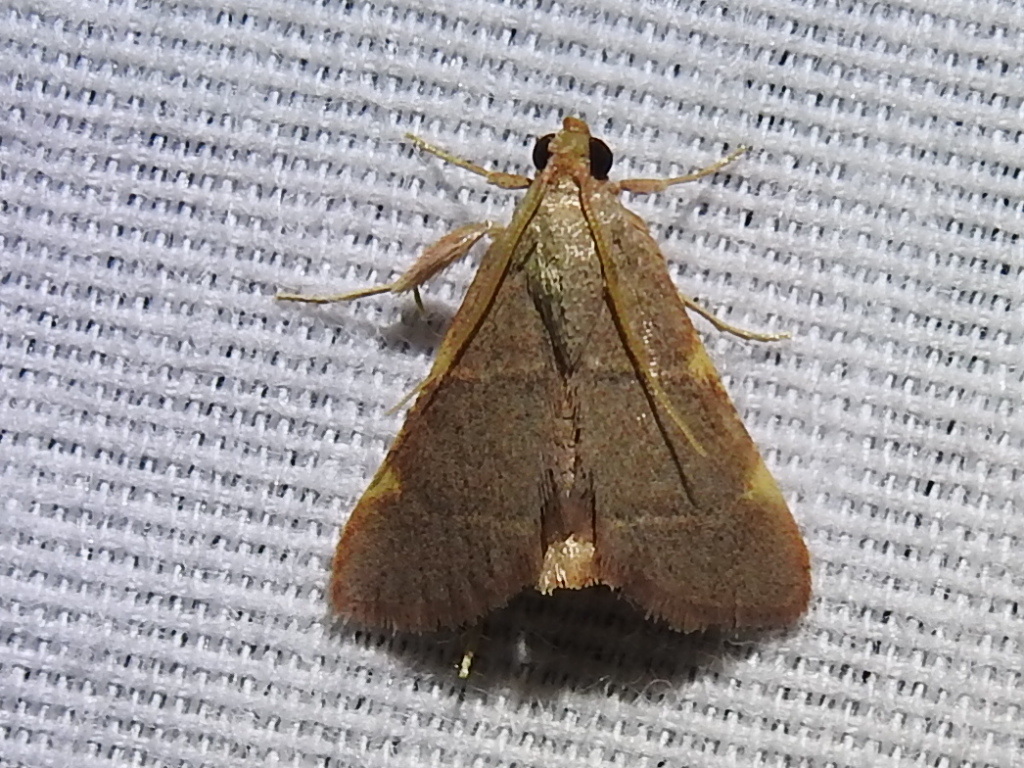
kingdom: Animalia
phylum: Arthropoda
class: Insecta
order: Lepidoptera
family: Pyralidae
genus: Hypsopygia
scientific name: Hypsopygia olinalis
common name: Yellow-fringed dolichomia moth
